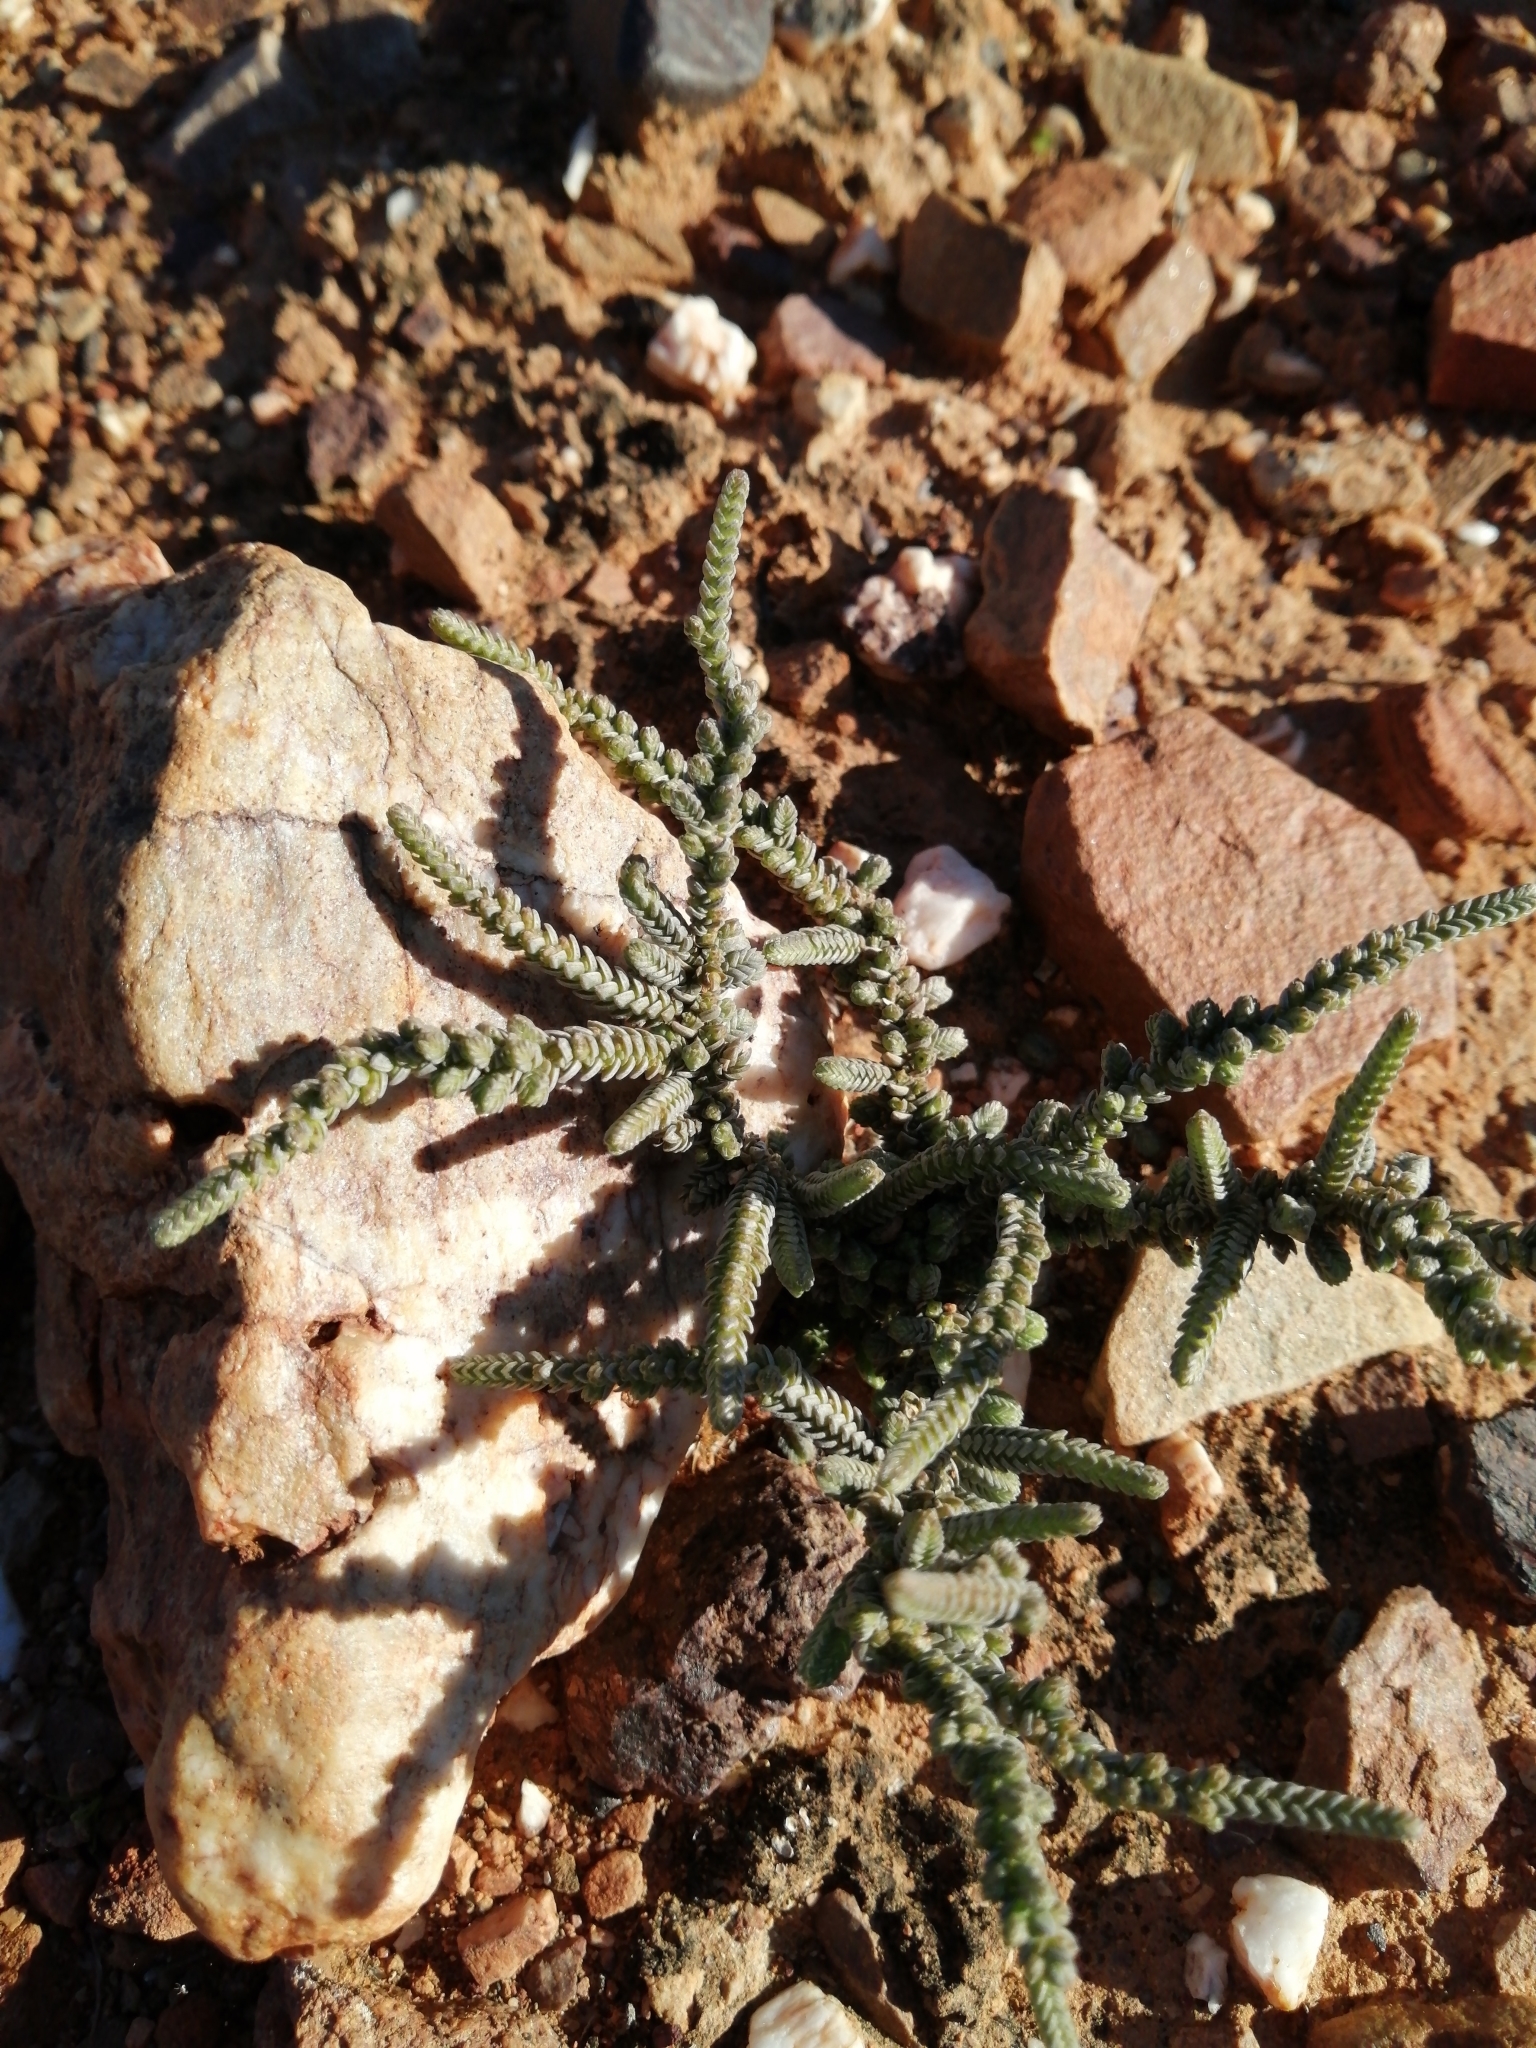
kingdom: Plantae
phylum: Tracheophyta
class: Magnoliopsida
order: Saxifragales
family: Crassulaceae
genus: Crassula
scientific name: Crassula muscosa
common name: Toy-cypress
